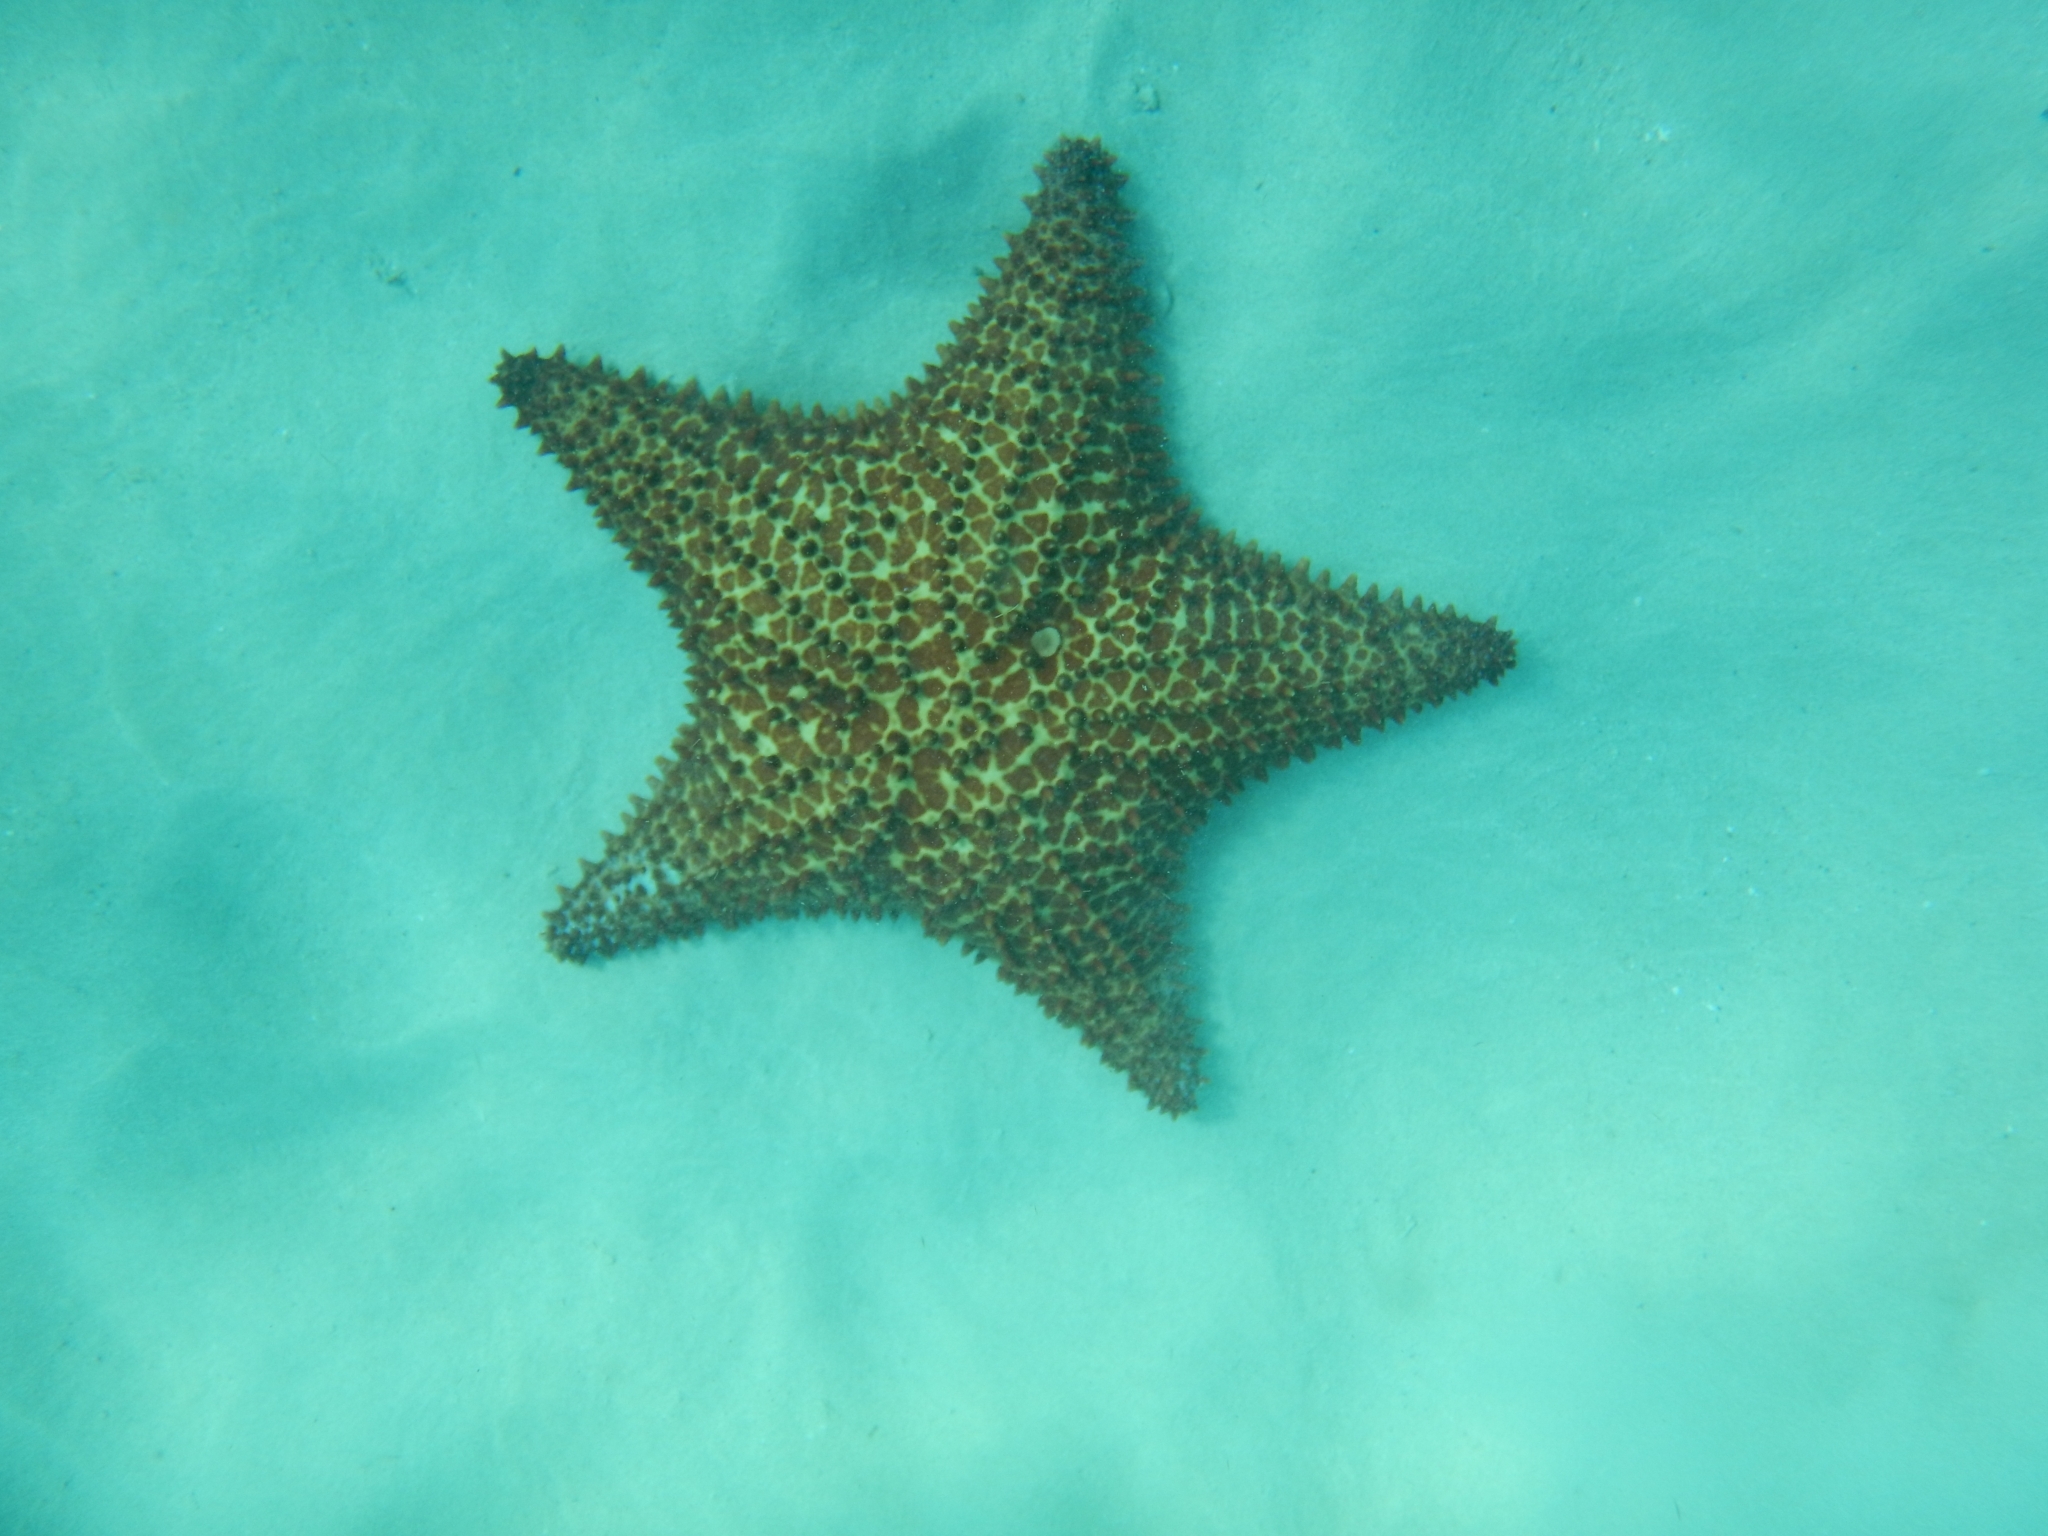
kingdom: Animalia
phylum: Echinodermata
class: Asteroidea
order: Valvatida
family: Oreasteridae
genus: Oreaster
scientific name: Oreaster reticulatus
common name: Cushion sea star
